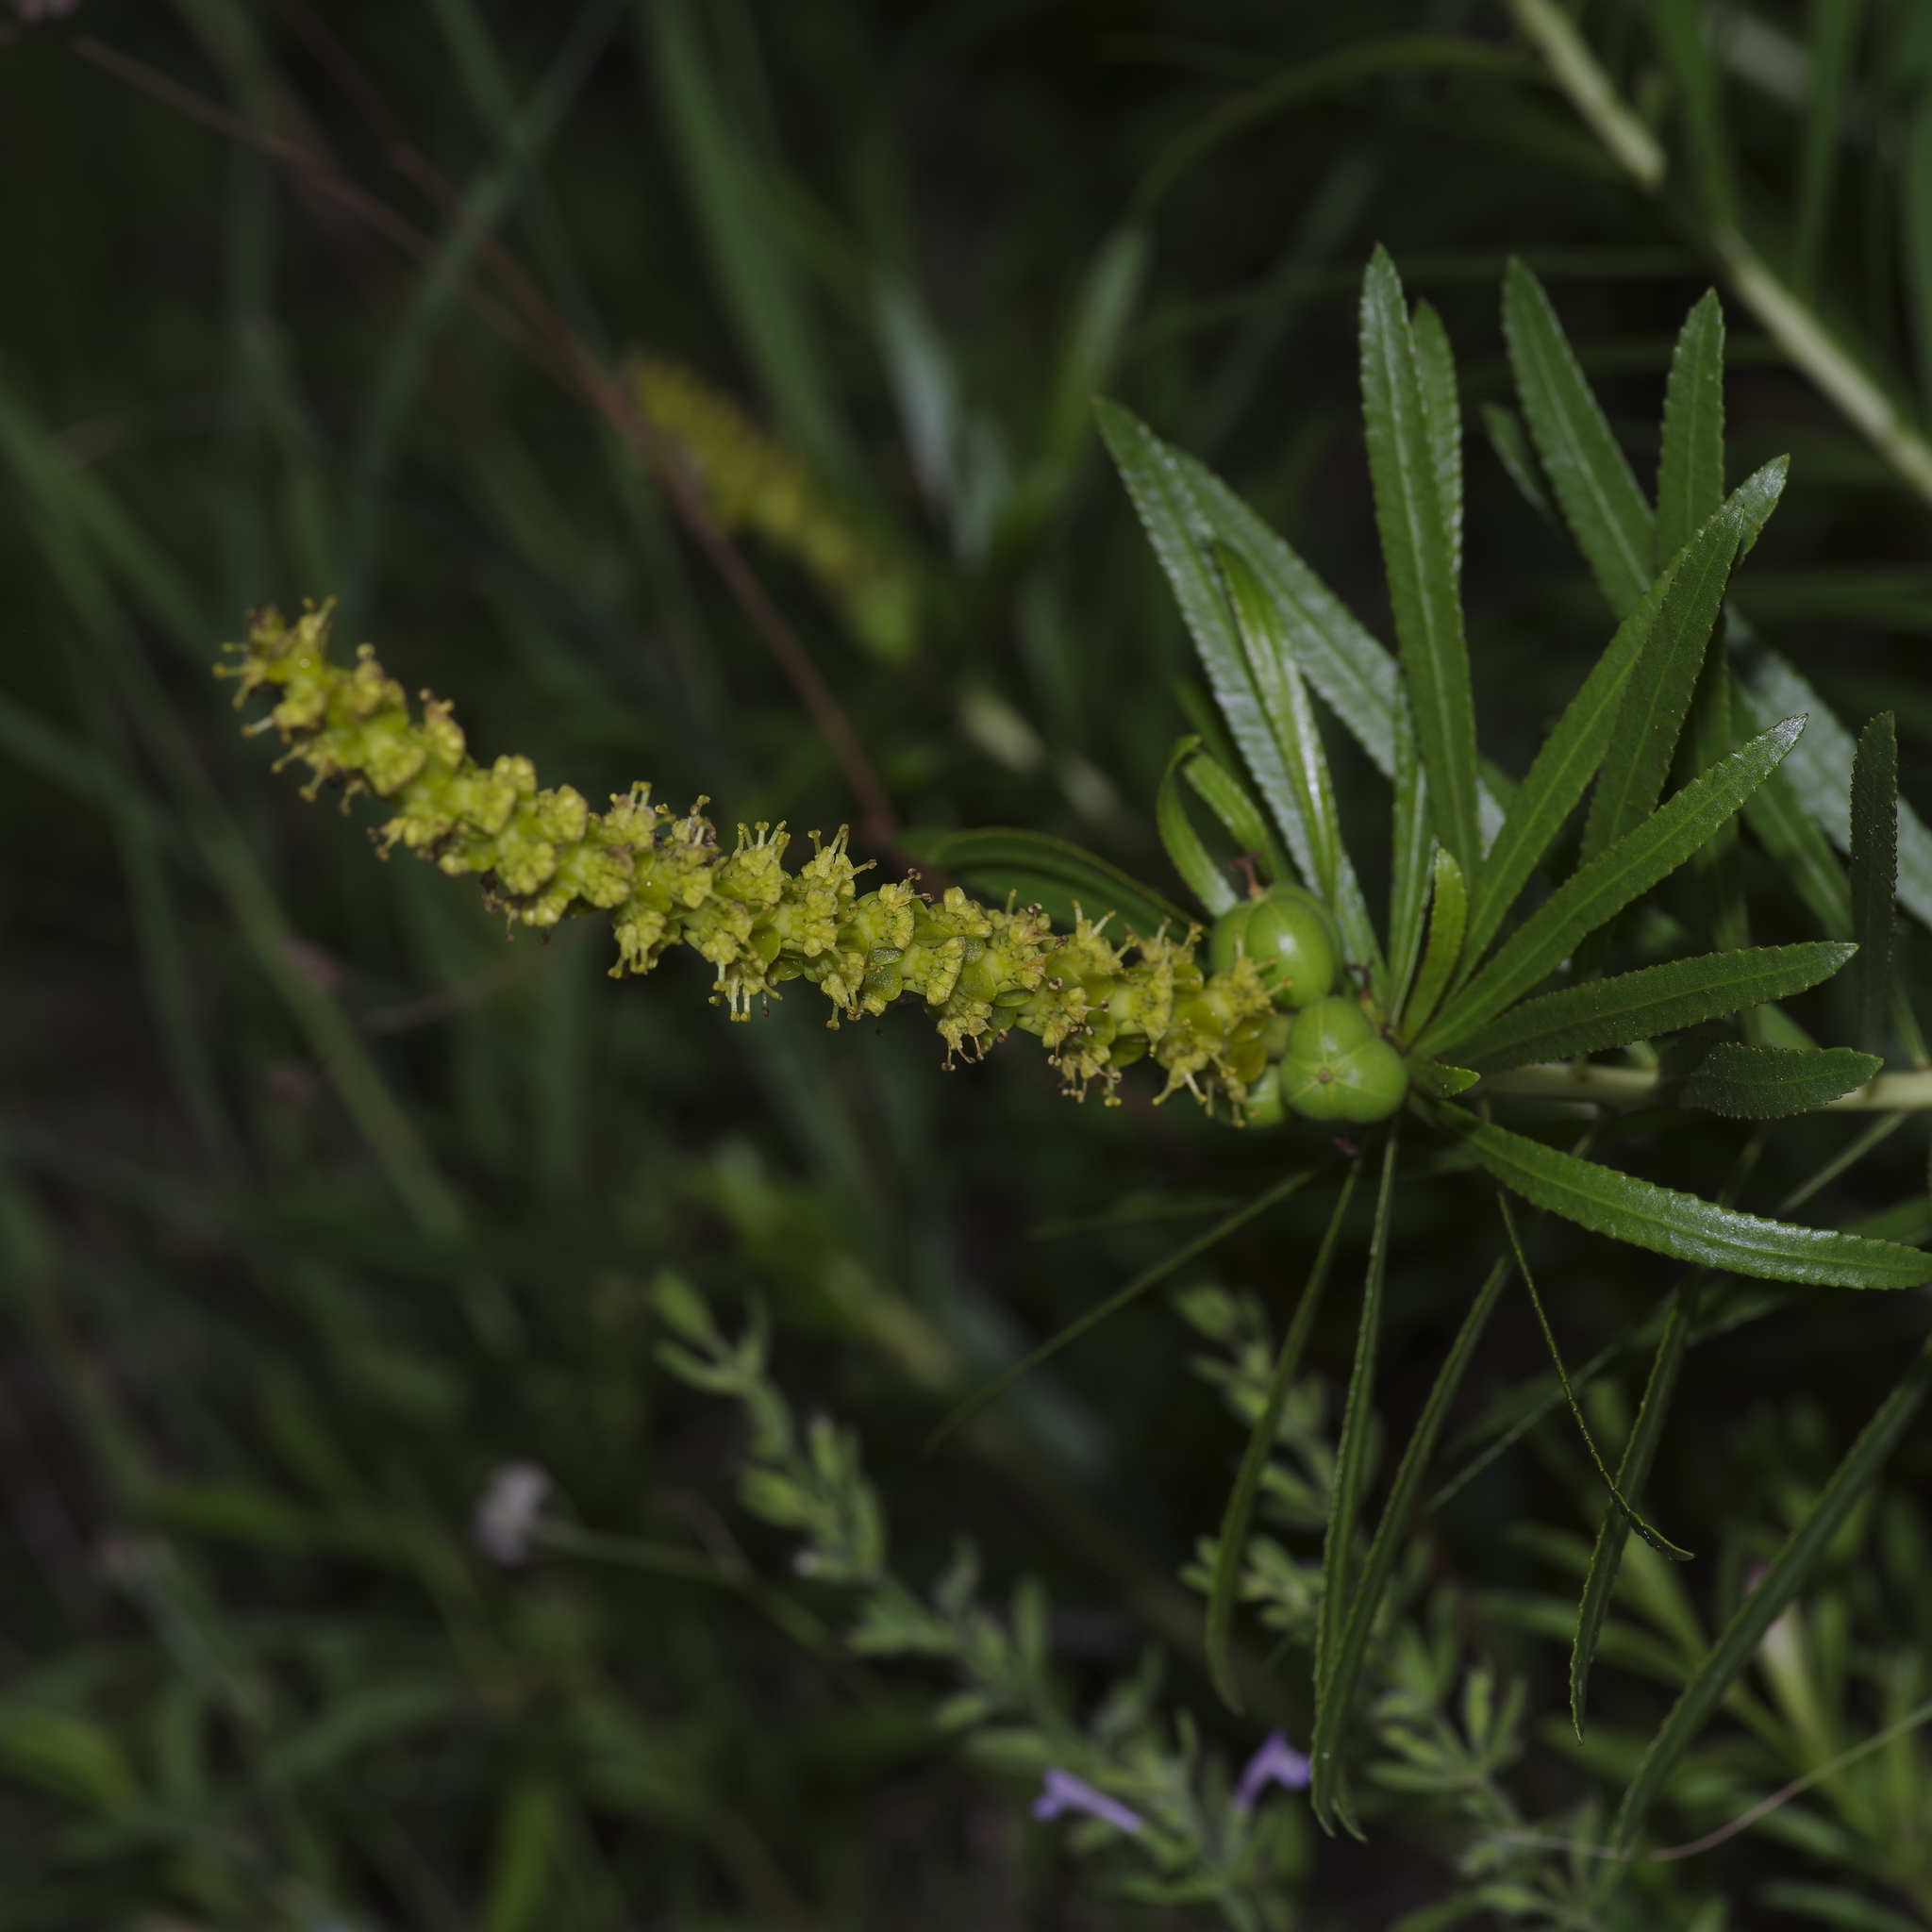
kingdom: Plantae
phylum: Tracheophyta
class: Magnoliopsida
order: Malpighiales
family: Euphorbiaceae
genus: Stillingia
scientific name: Stillingia texana
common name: Texas stillingia
